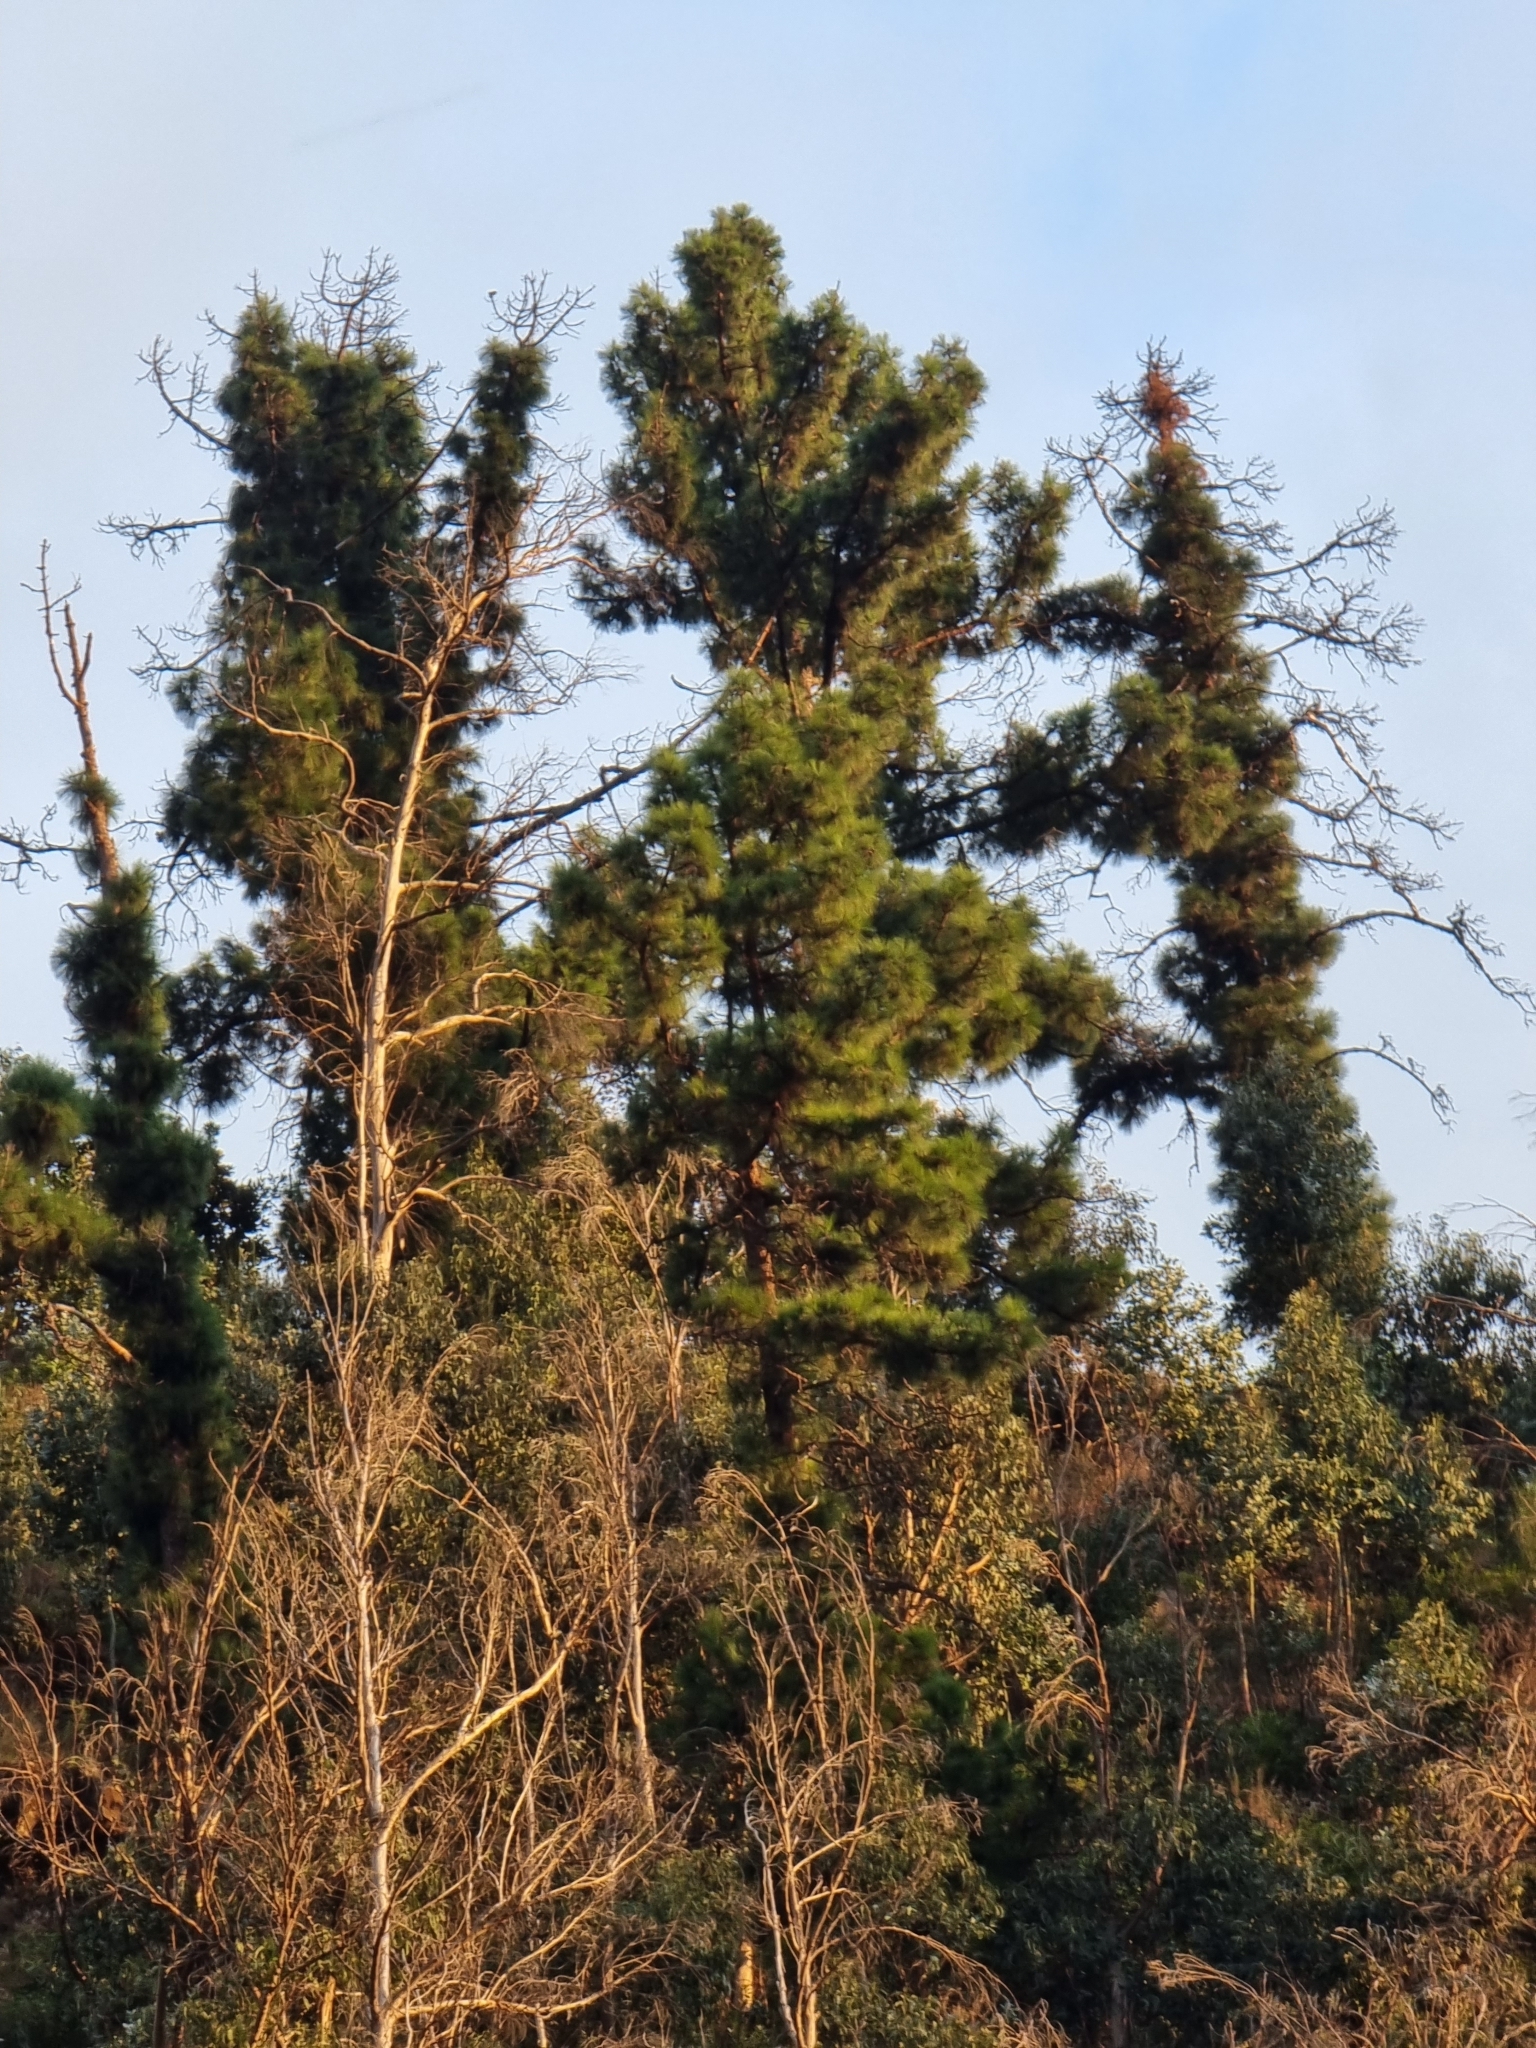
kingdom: Plantae
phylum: Tracheophyta
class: Pinopsida
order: Pinales
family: Pinaceae
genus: Pinus
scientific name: Pinus pinaster
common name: Maritime pine
